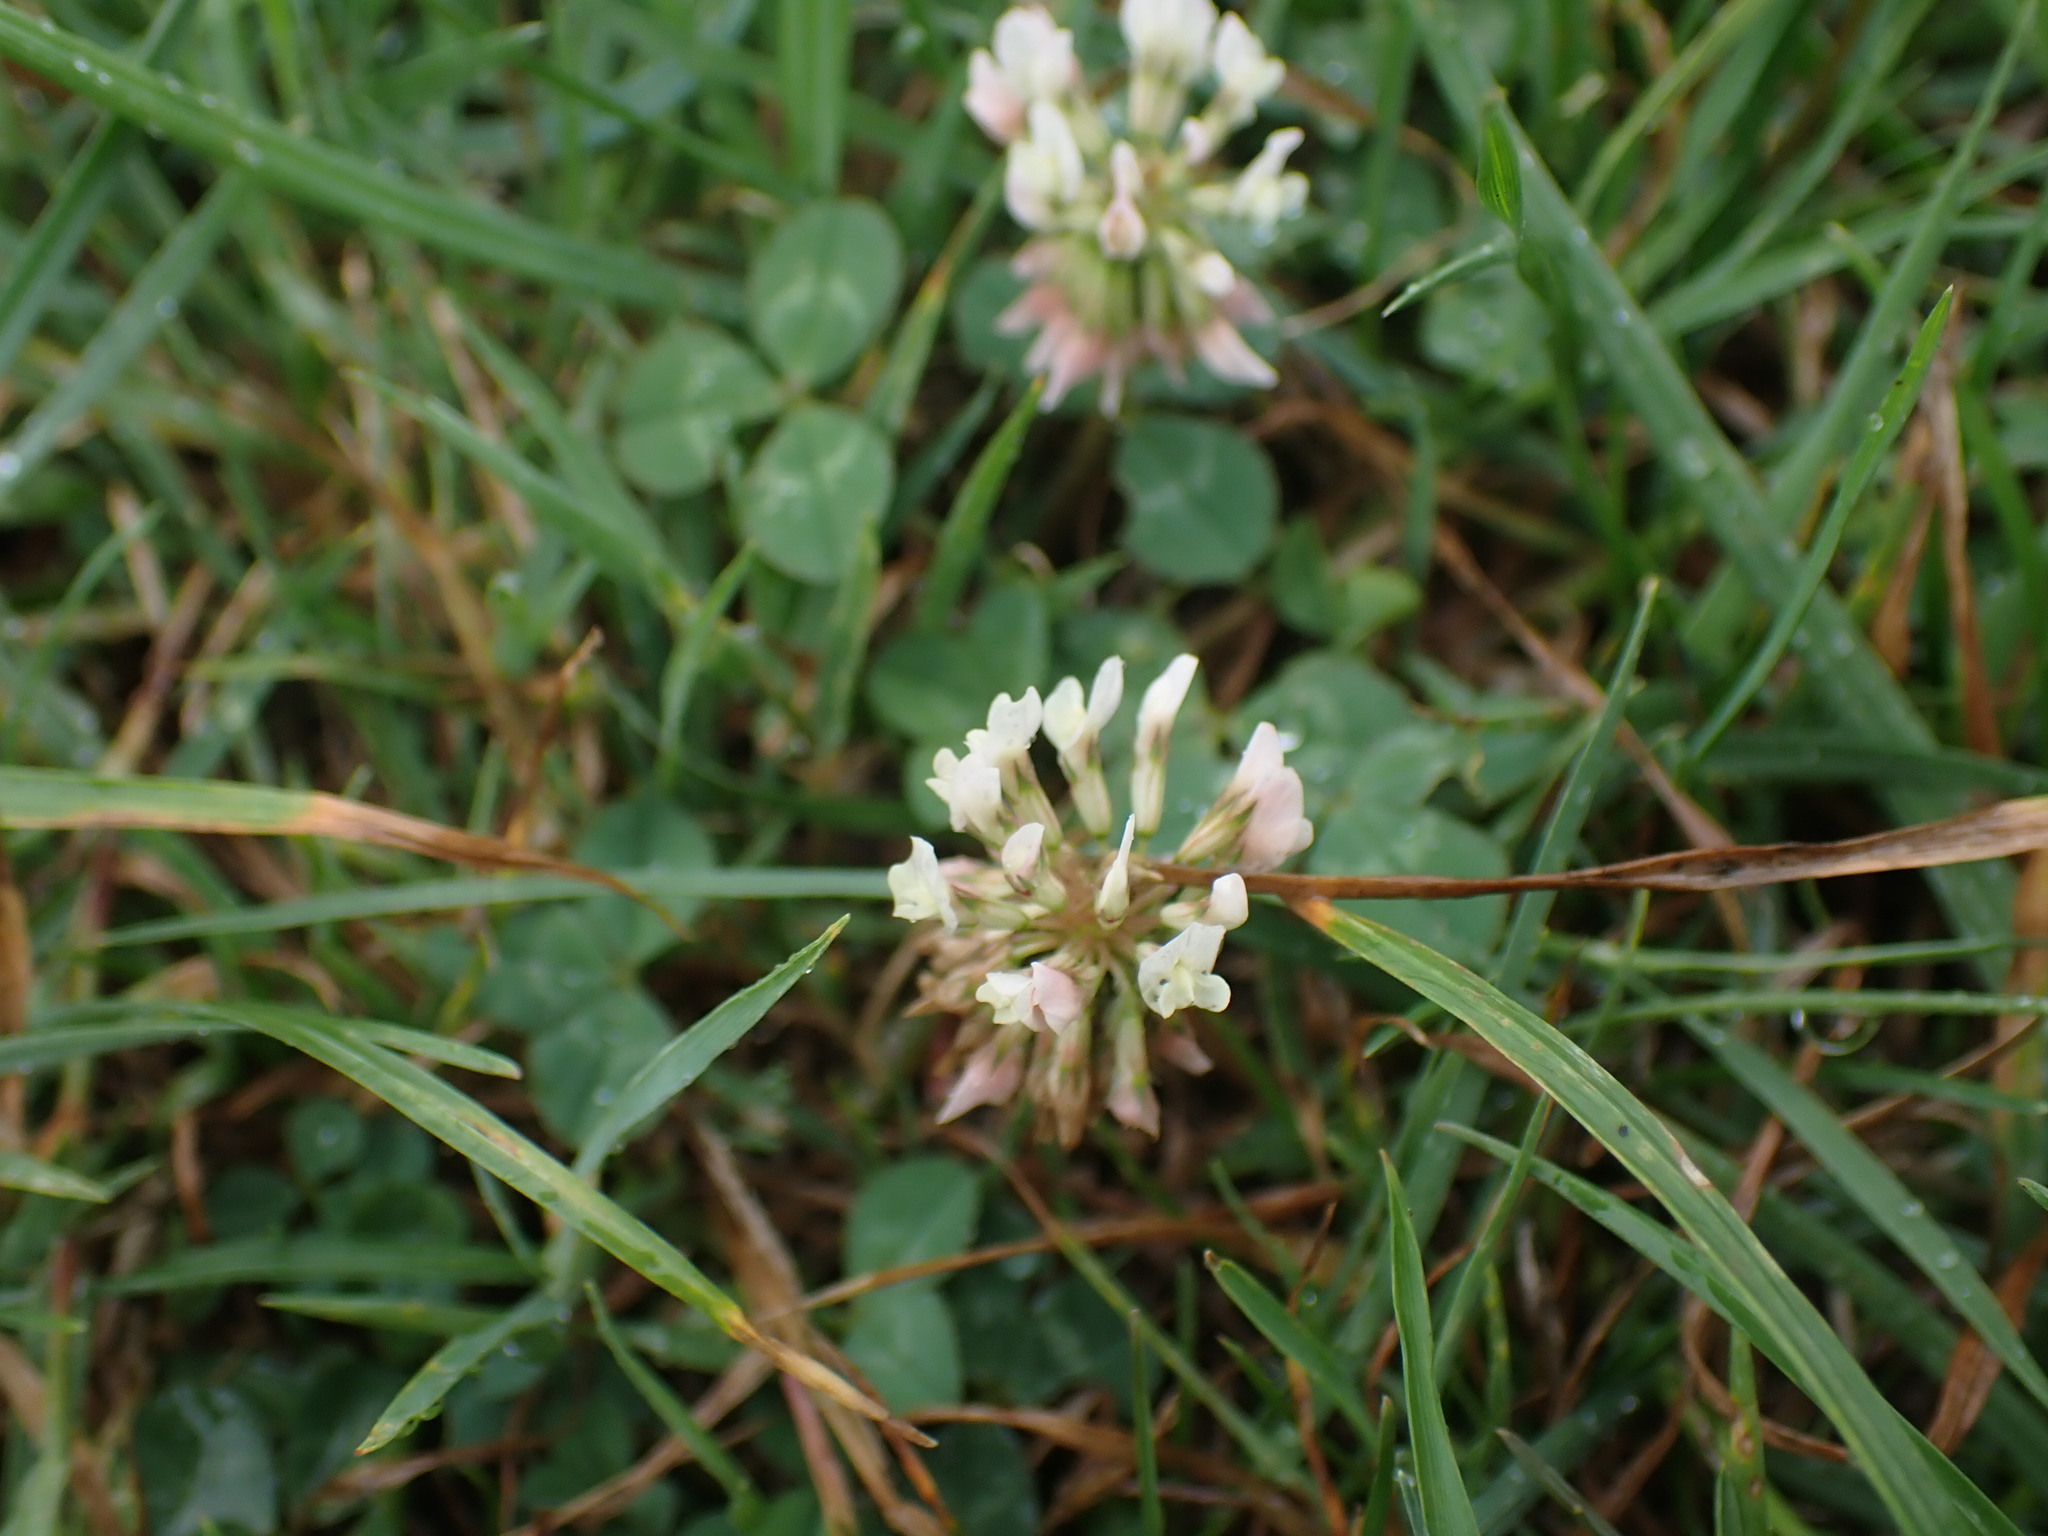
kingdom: Plantae
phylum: Tracheophyta
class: Magnoliopsida
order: Fabales
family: Fabaceae
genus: Trifolium
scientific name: Trifolium repens
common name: White clover
